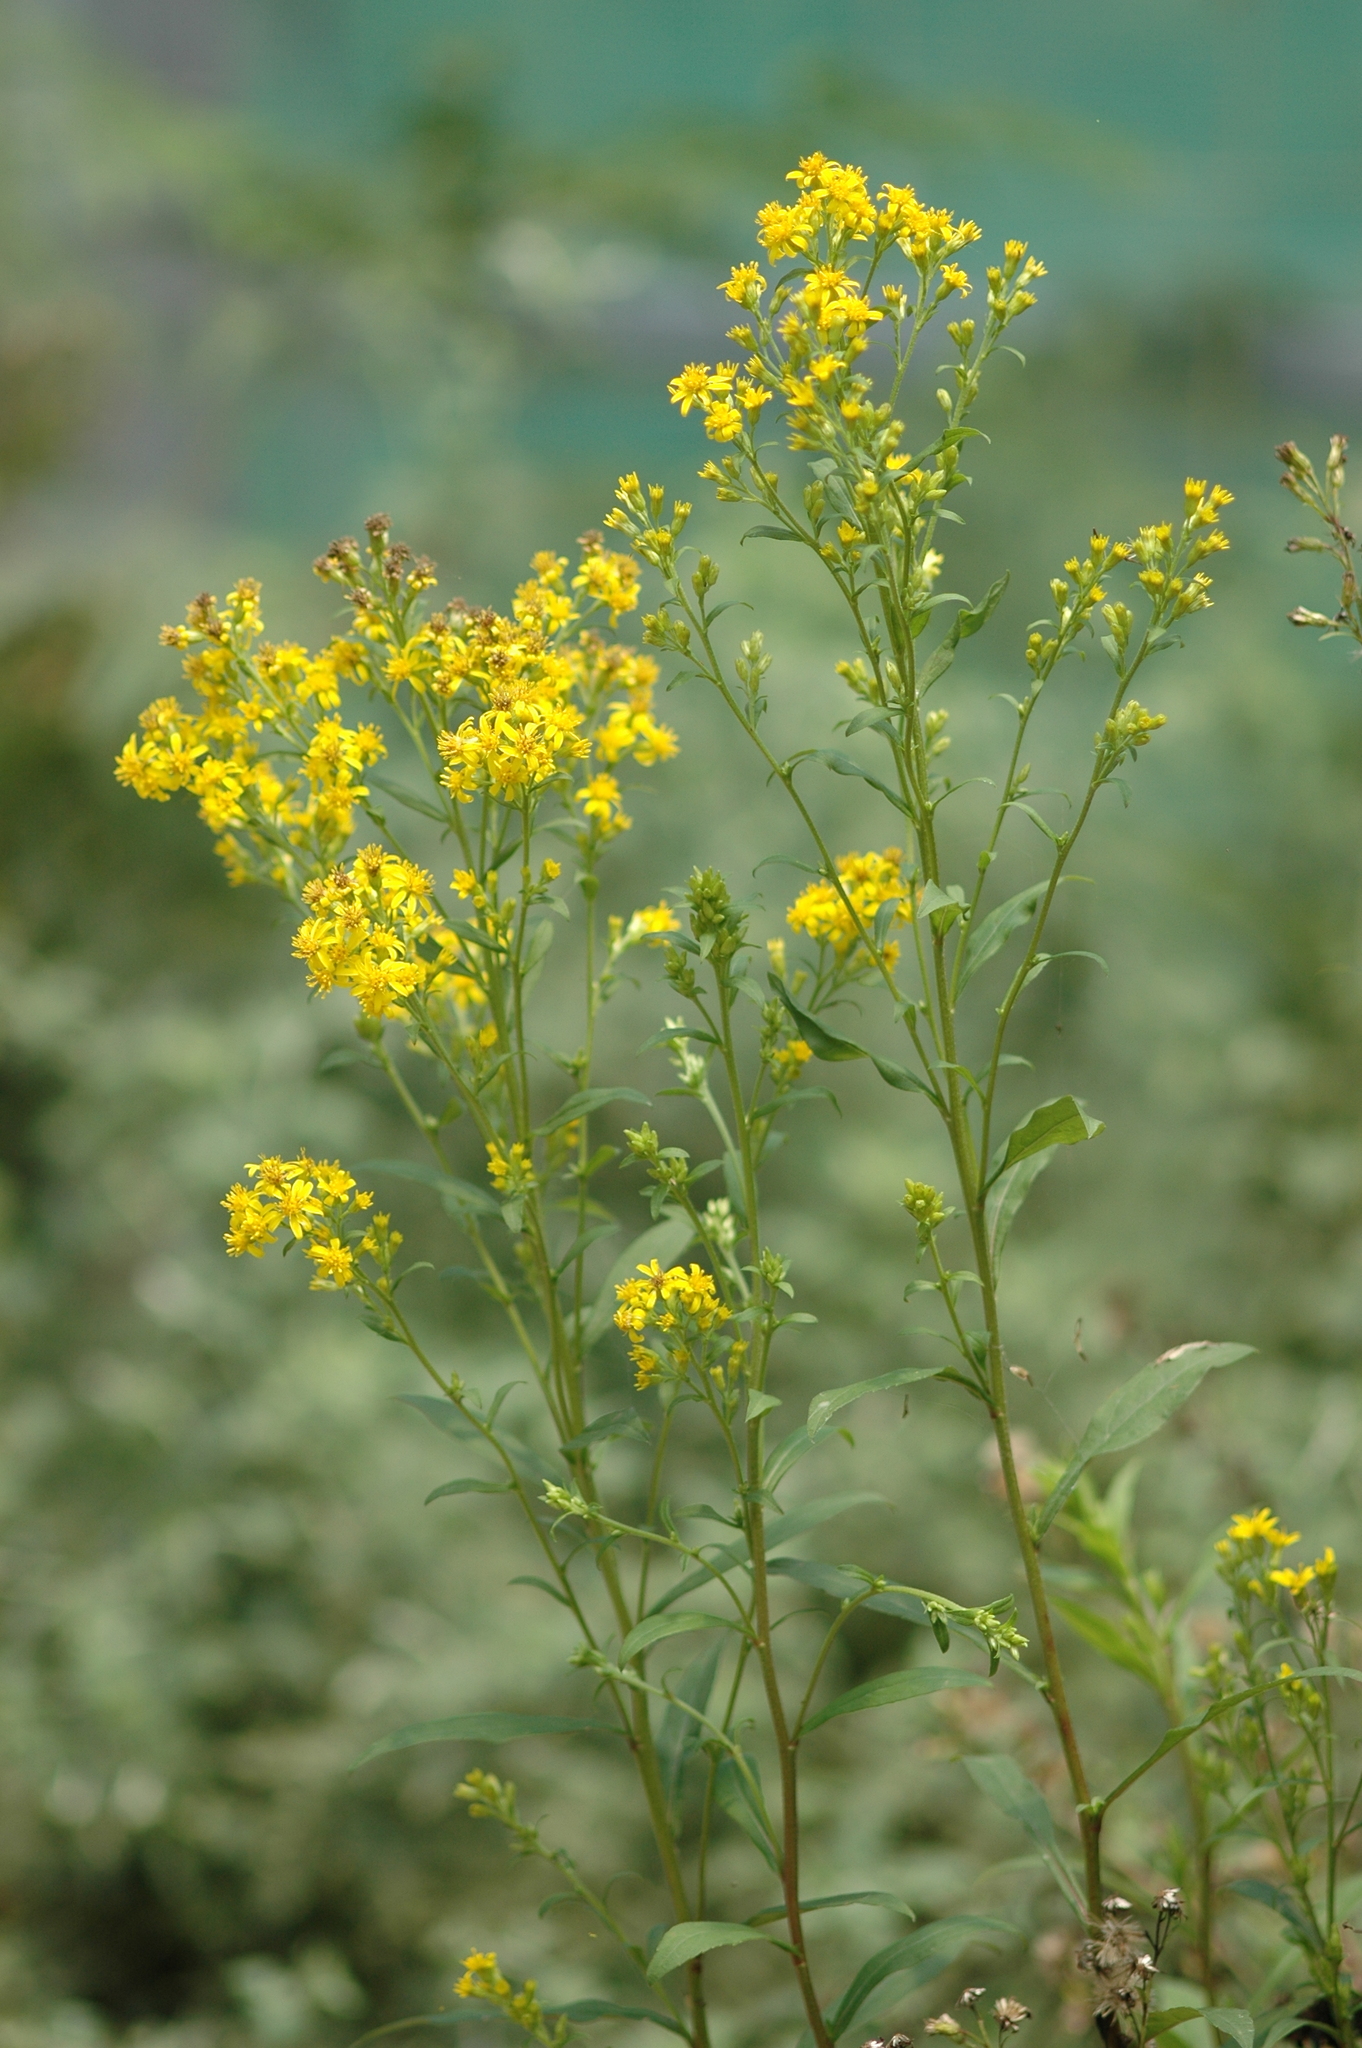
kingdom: Plantae
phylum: Tracheophyta
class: Magnoliopsida
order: Asterales
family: Asteraceae
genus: Solidago
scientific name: Solidago decurrens
